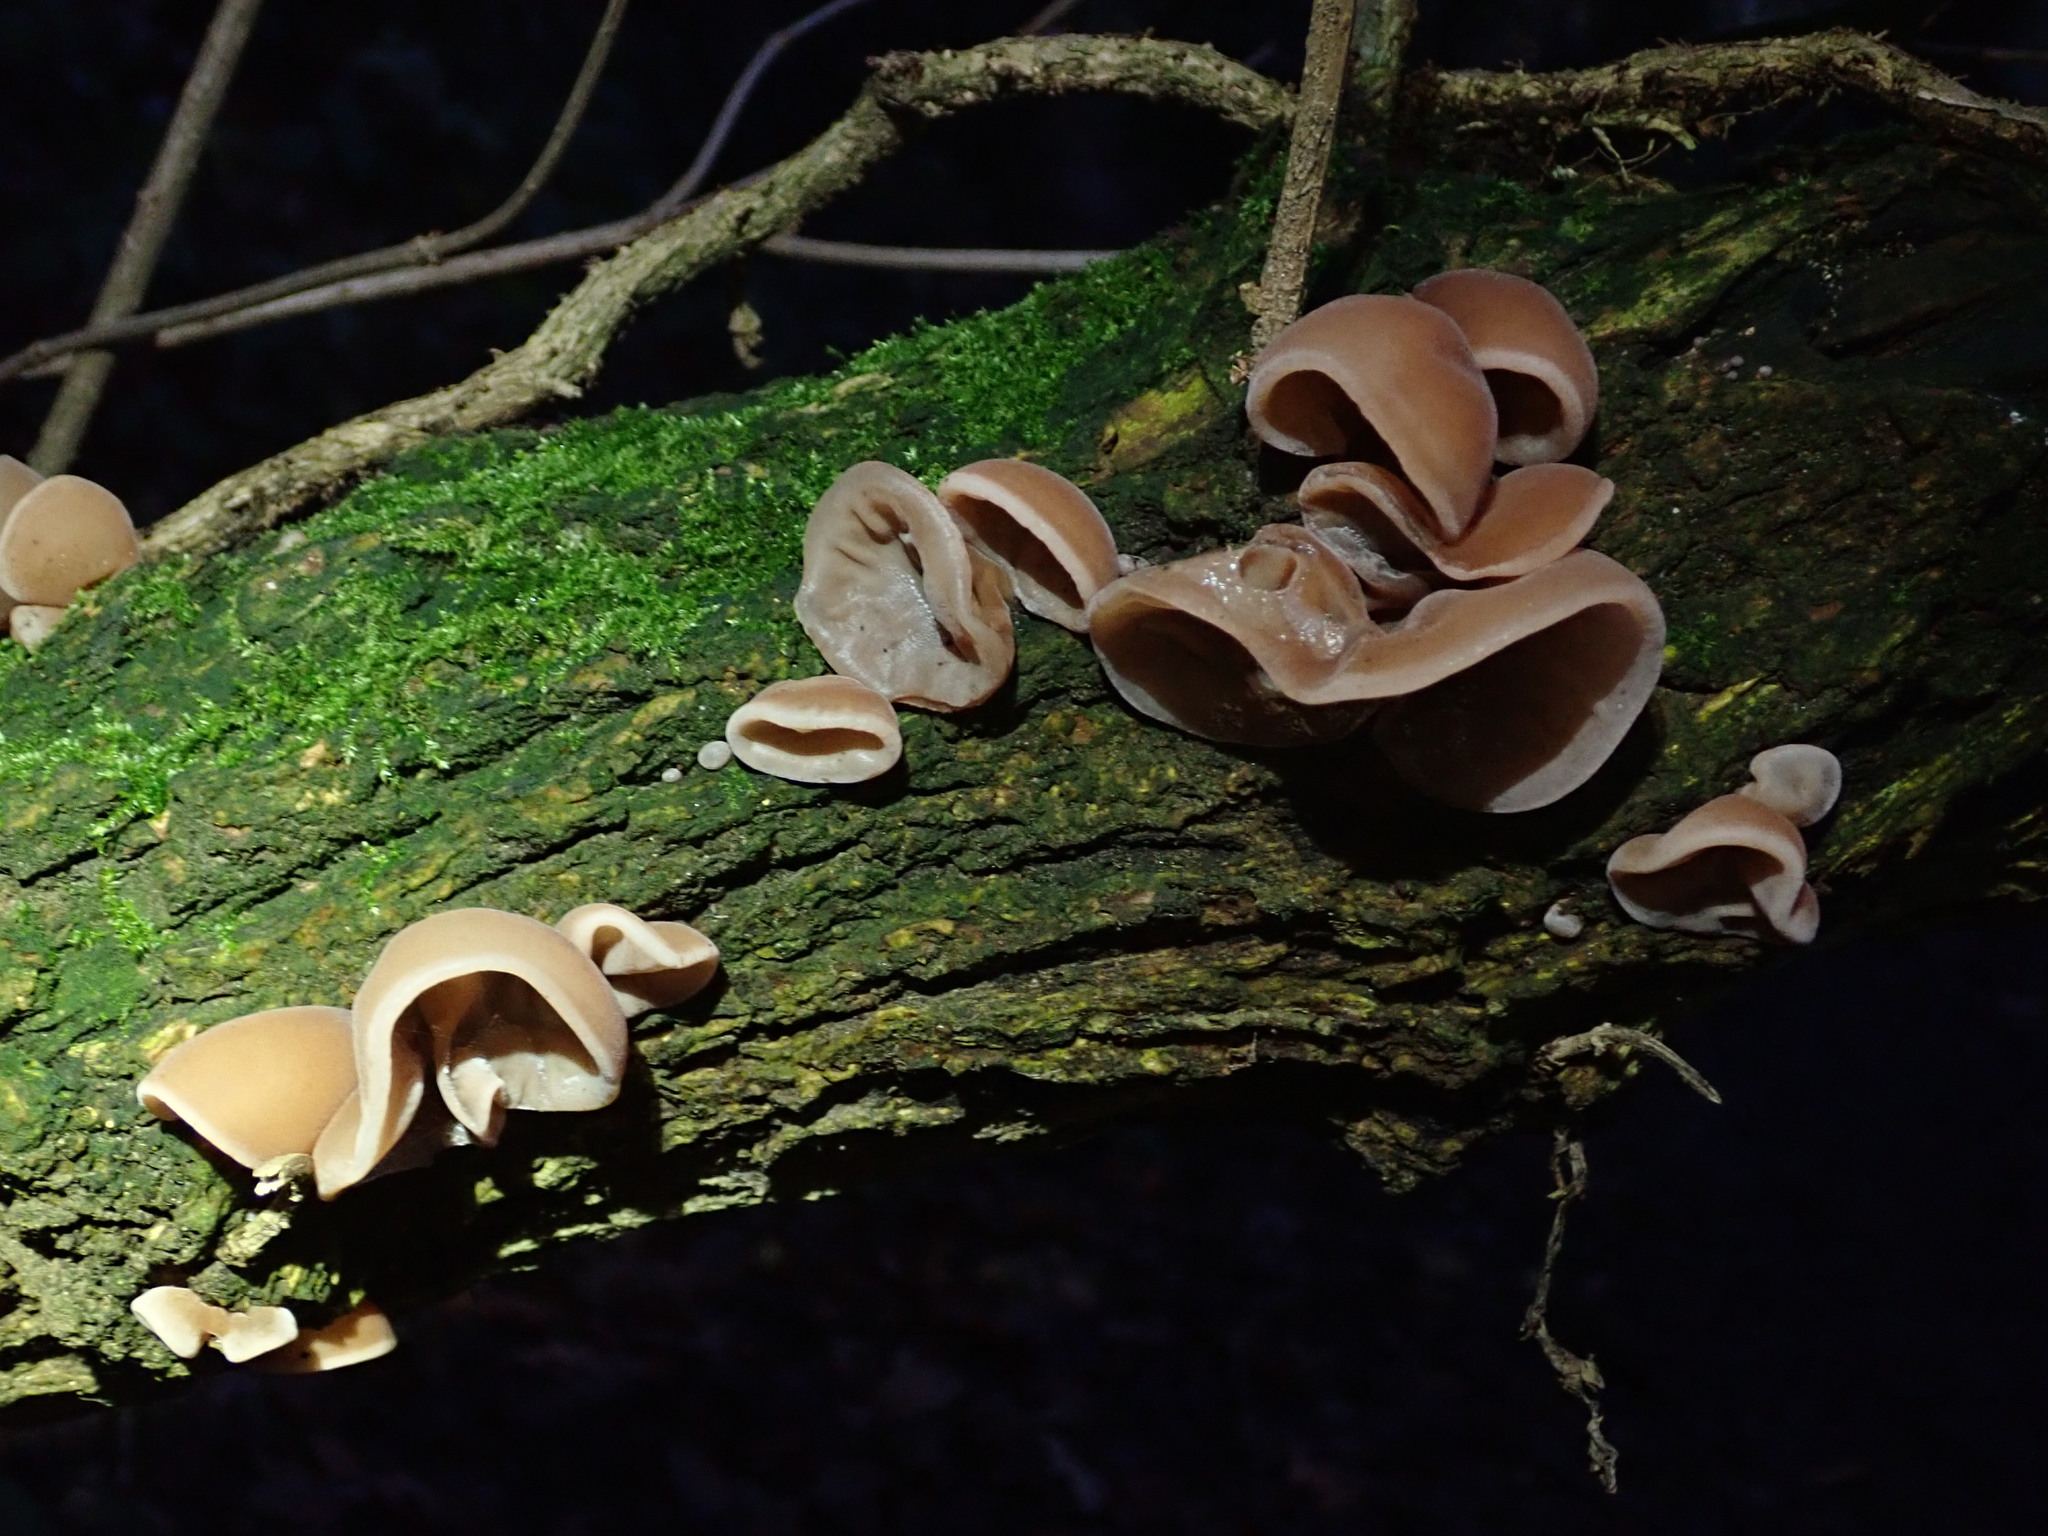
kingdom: Fungi
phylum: Basidiomycota
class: Agaricomycetes
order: Auriculariales
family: Auriculariaceae
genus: Auricularia
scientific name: Auricularia auricula-judae
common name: Jelly ear
